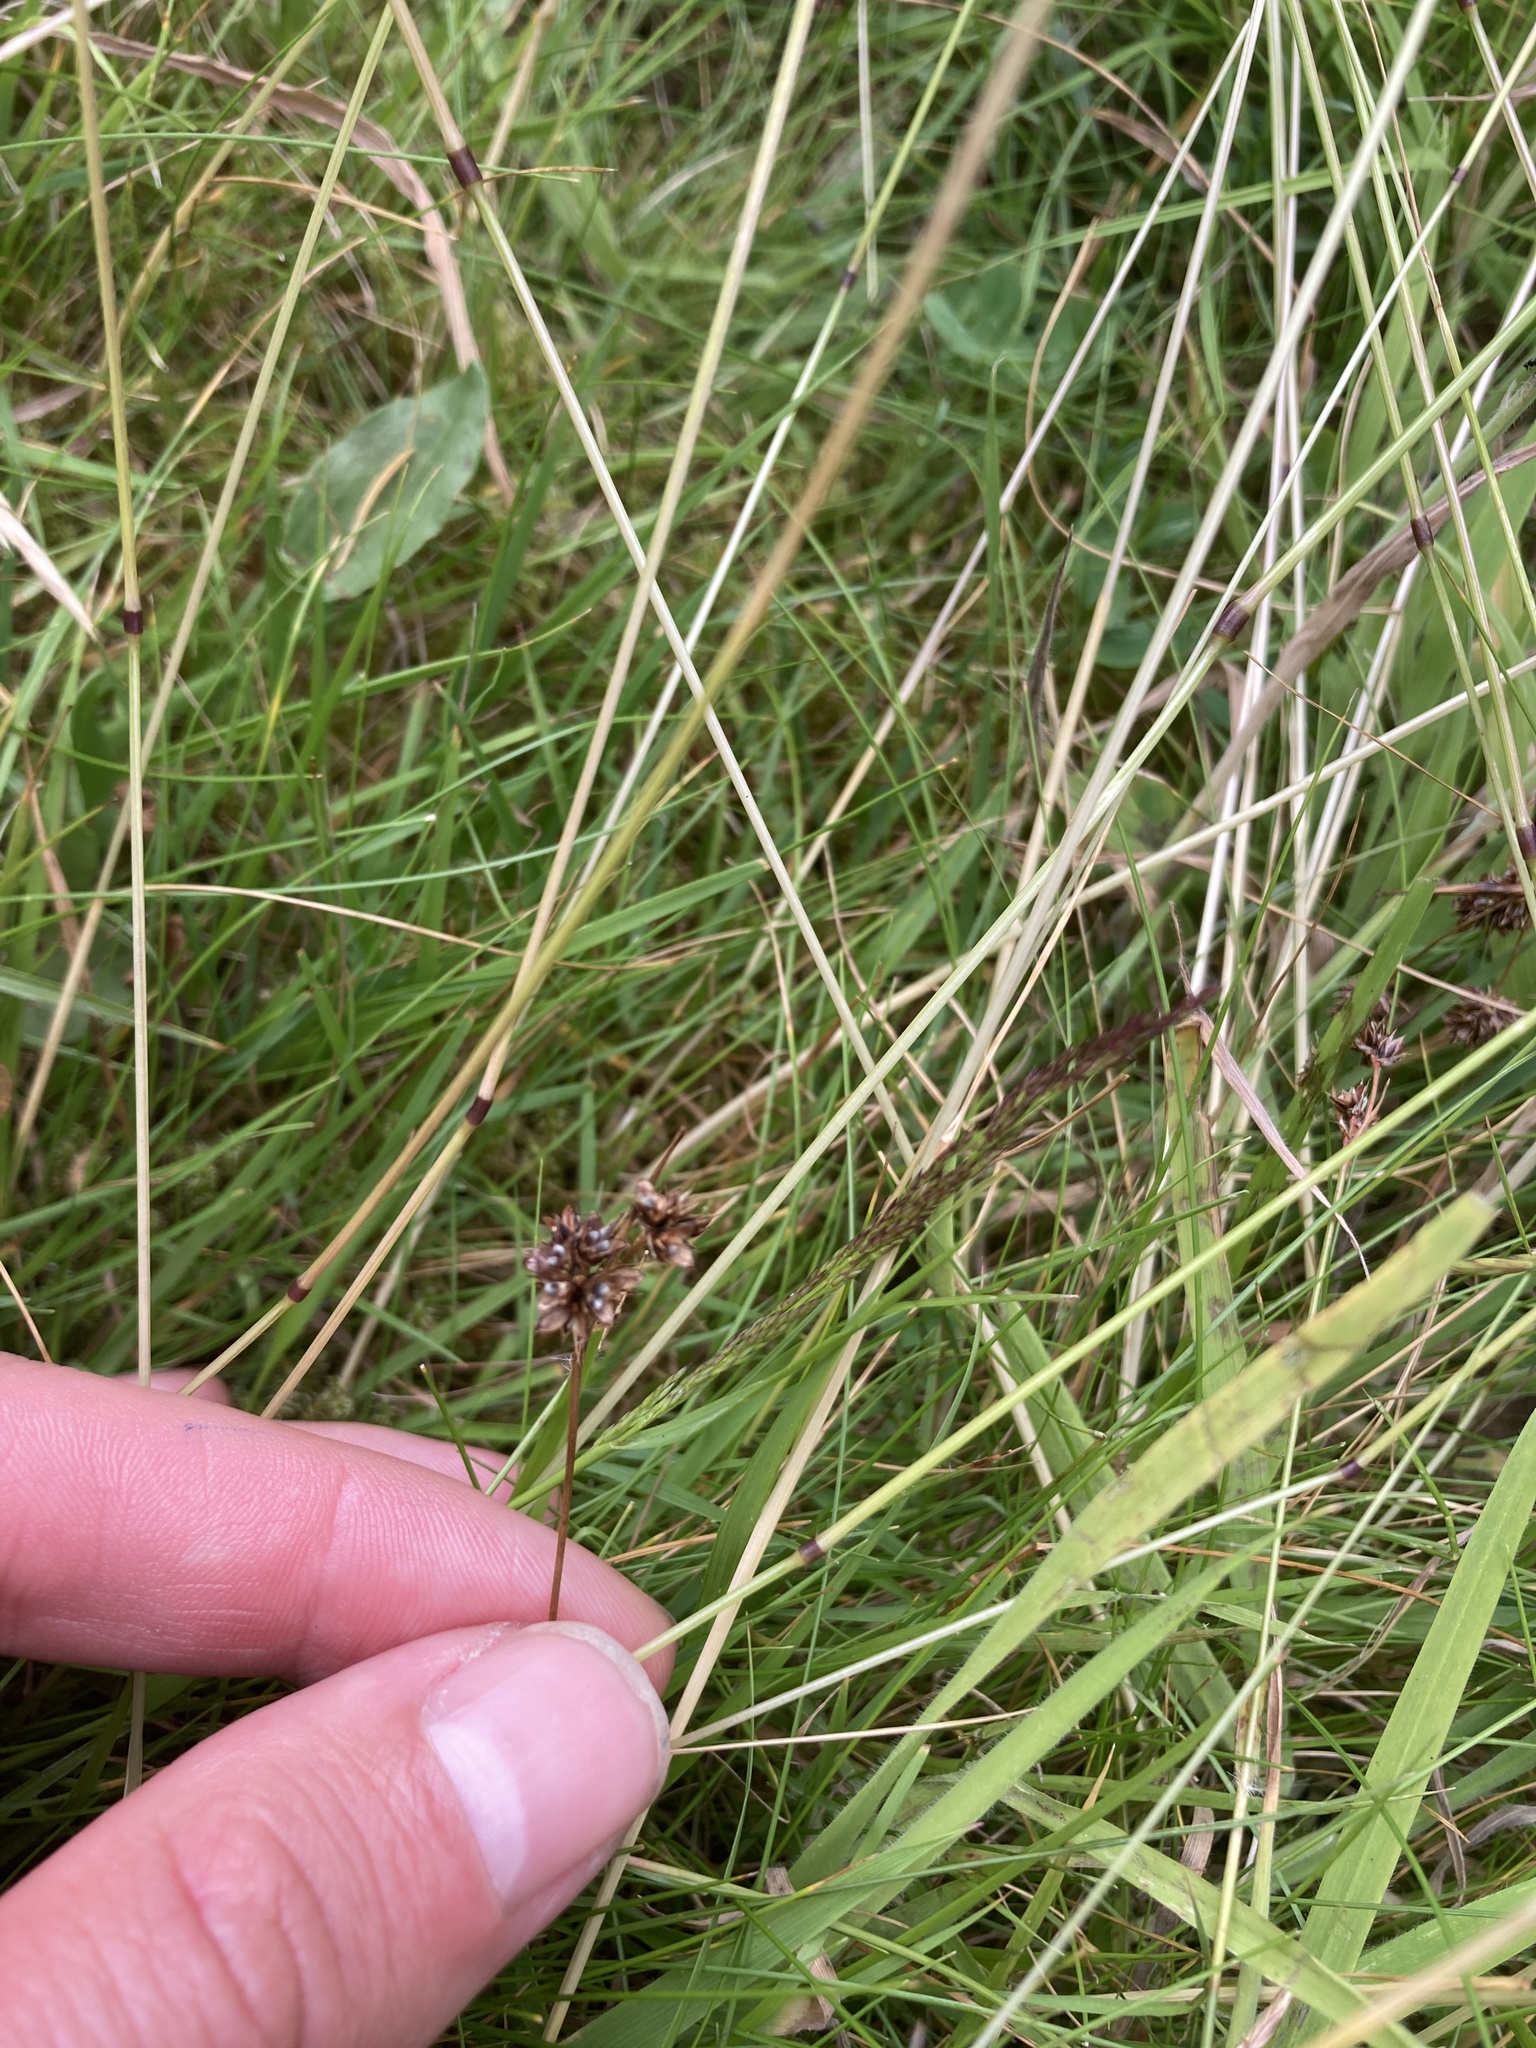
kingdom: Plantae
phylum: Tracheophyta
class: Liliopsida
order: Poales
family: Juncaceae
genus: Luzula
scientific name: Luzula campestris
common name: Field wood-rush
